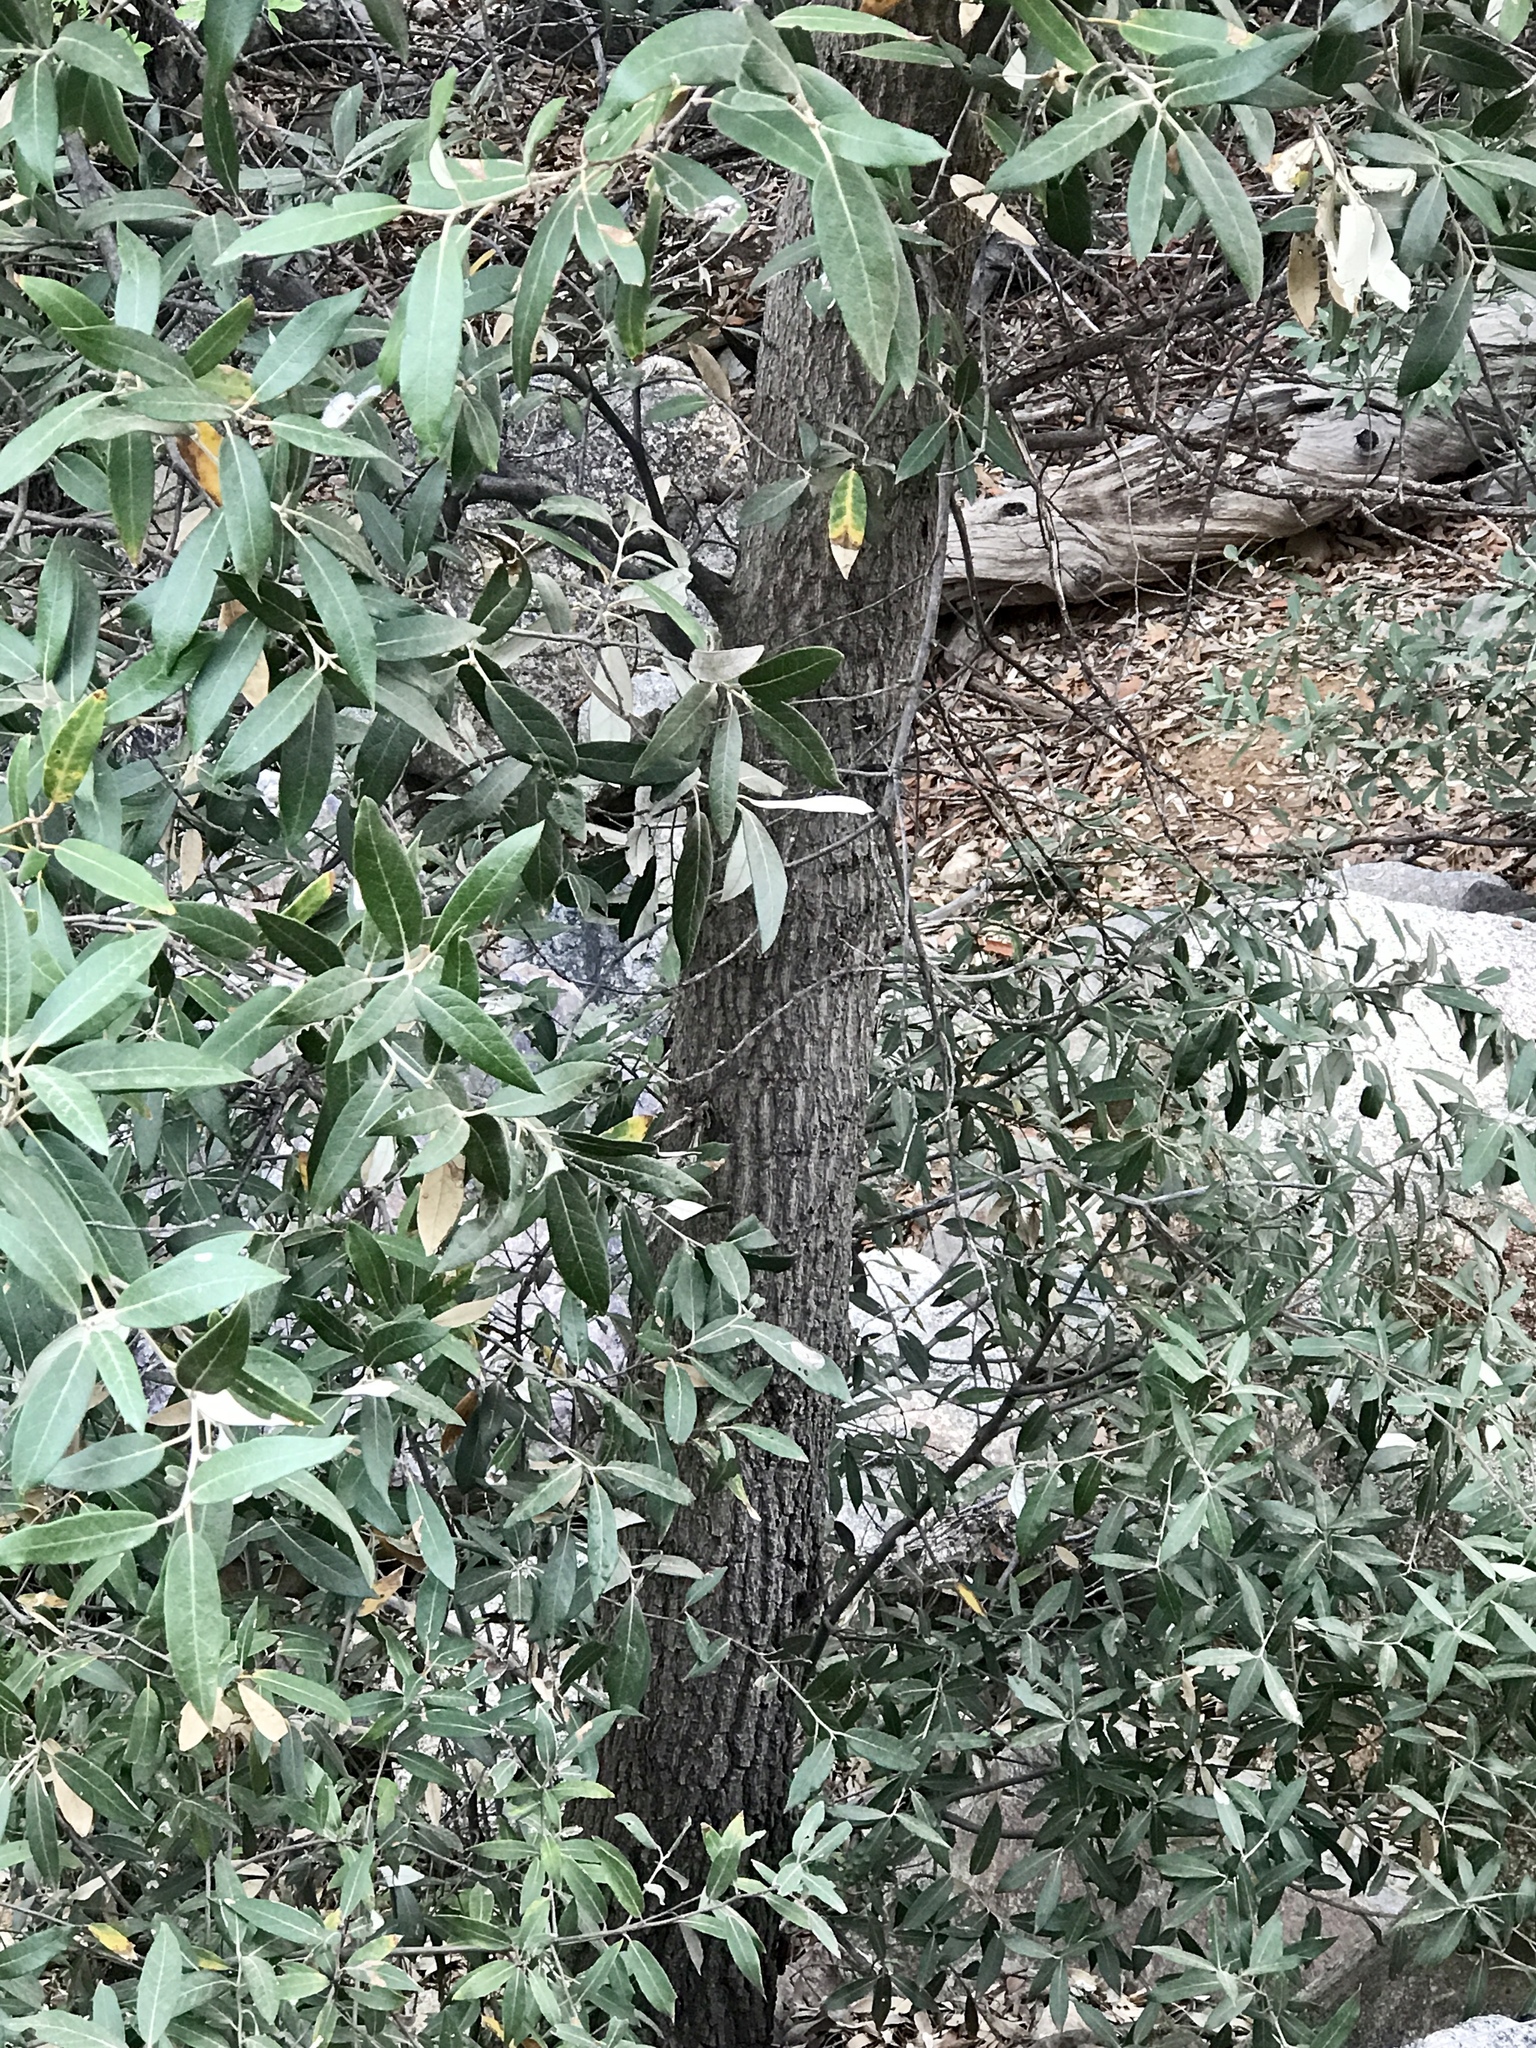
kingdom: Plantae
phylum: Tracheophyta
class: Magnoliopsida
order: Fagales
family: Fagaceae
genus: Quercus
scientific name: Quercus hypoleucoides
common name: Silverleaf oak
